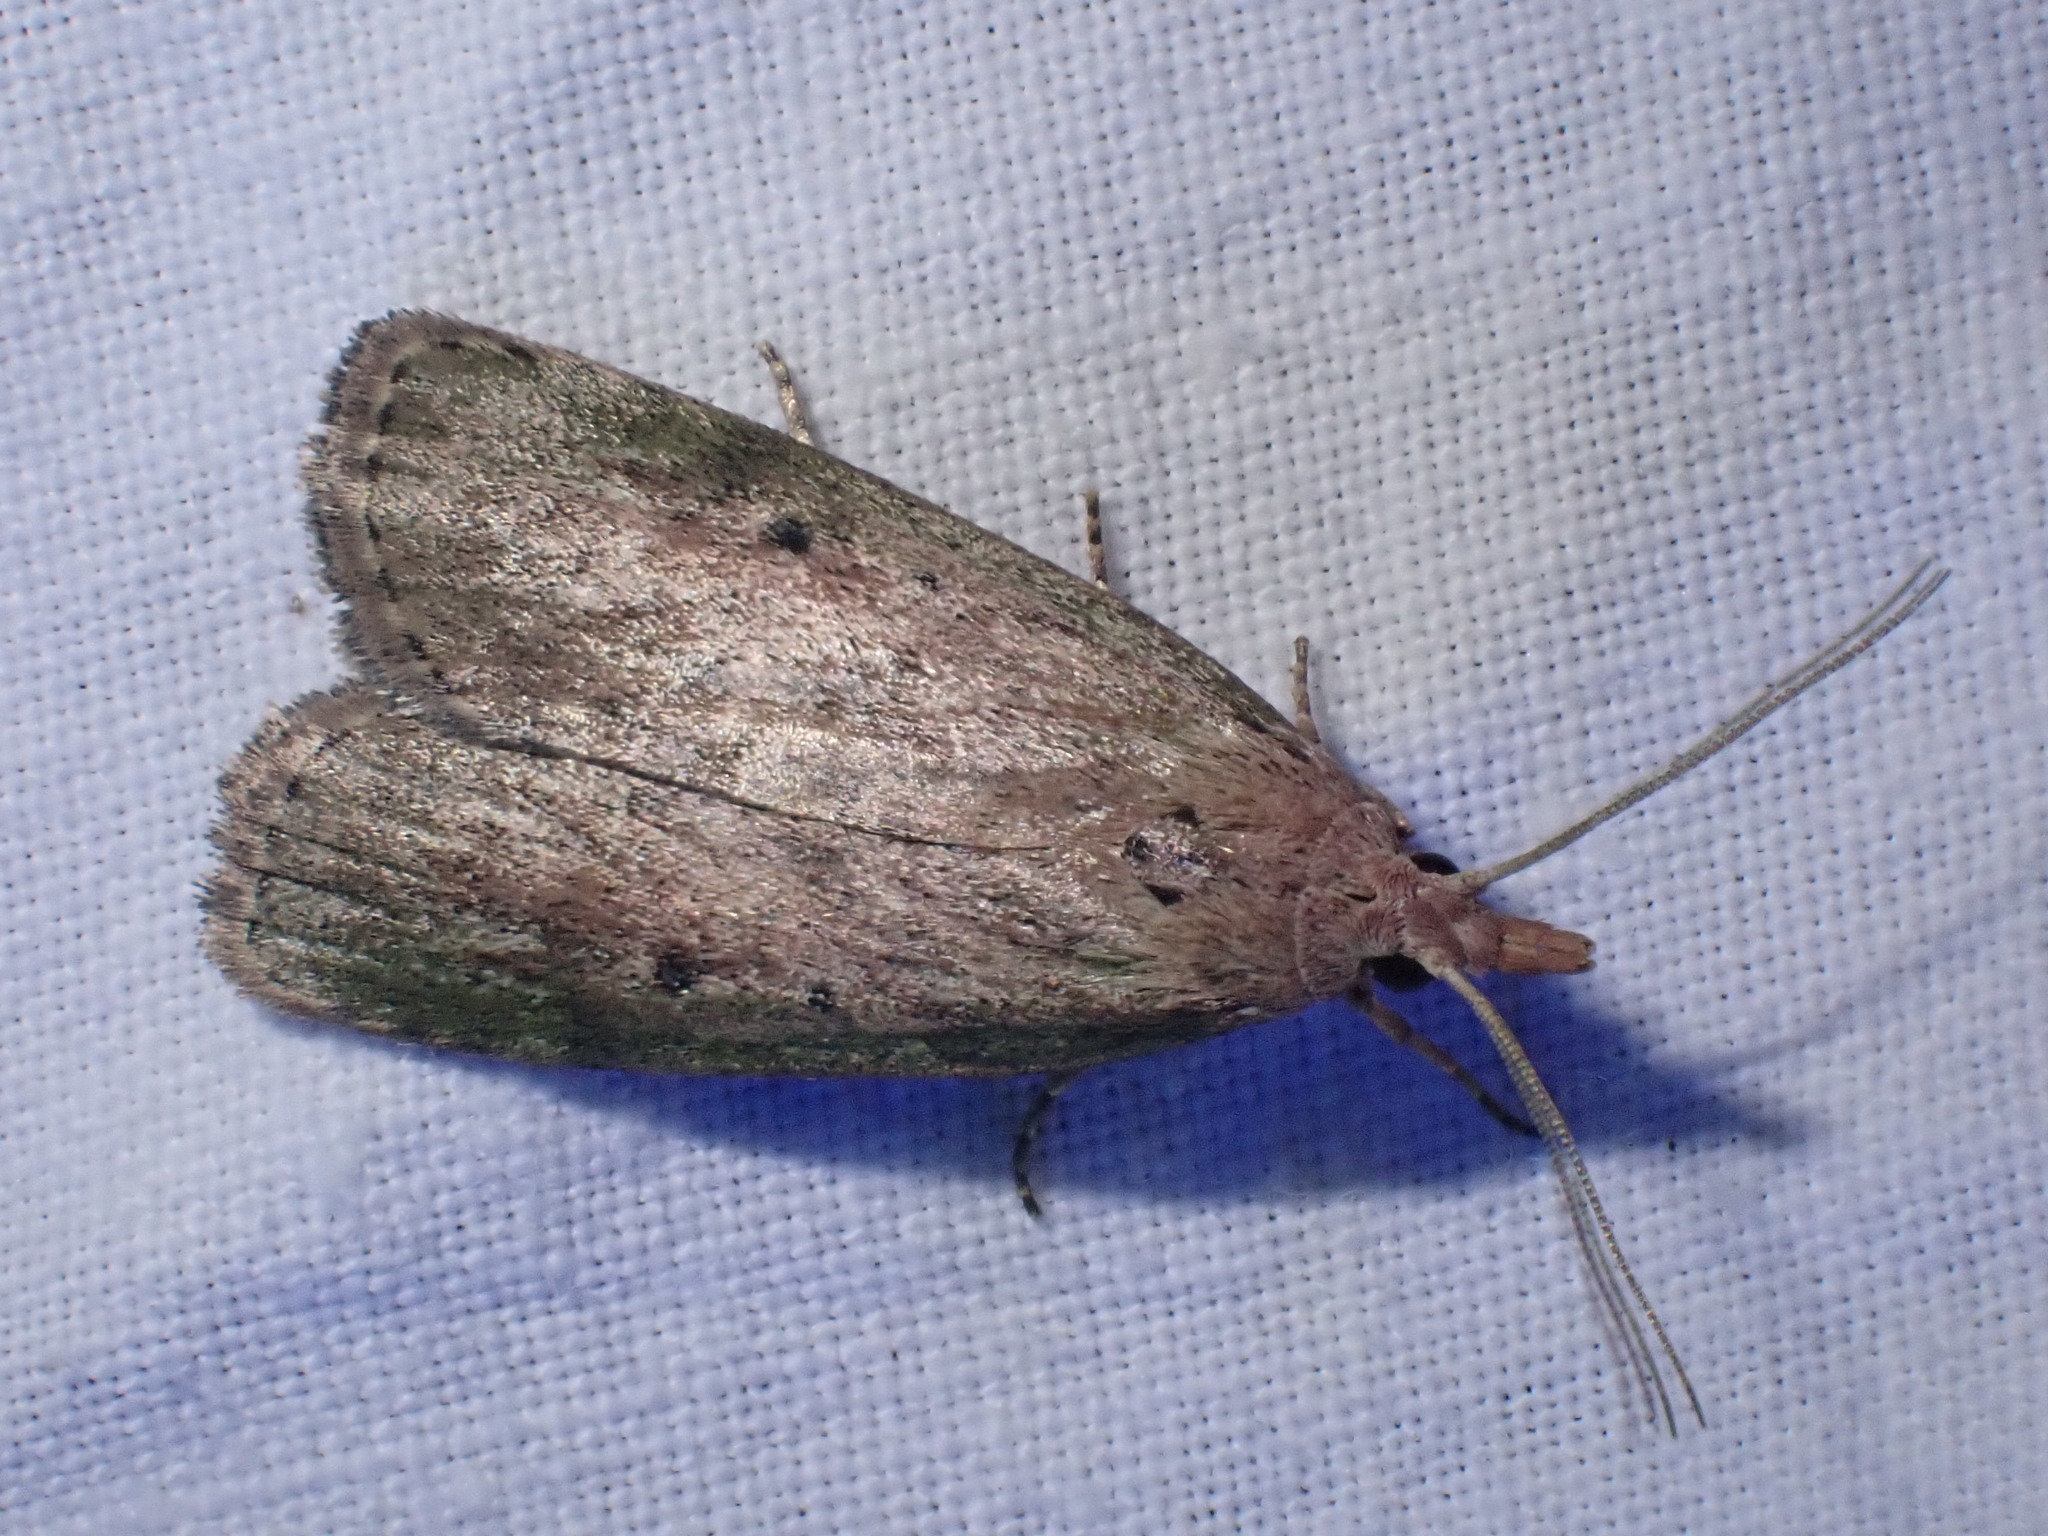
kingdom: Animalia
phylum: Arthropoda
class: Insecta
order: Lepidoptera
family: Pyralidae
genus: Aphomia
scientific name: Aphomia sociella
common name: Bee moth
